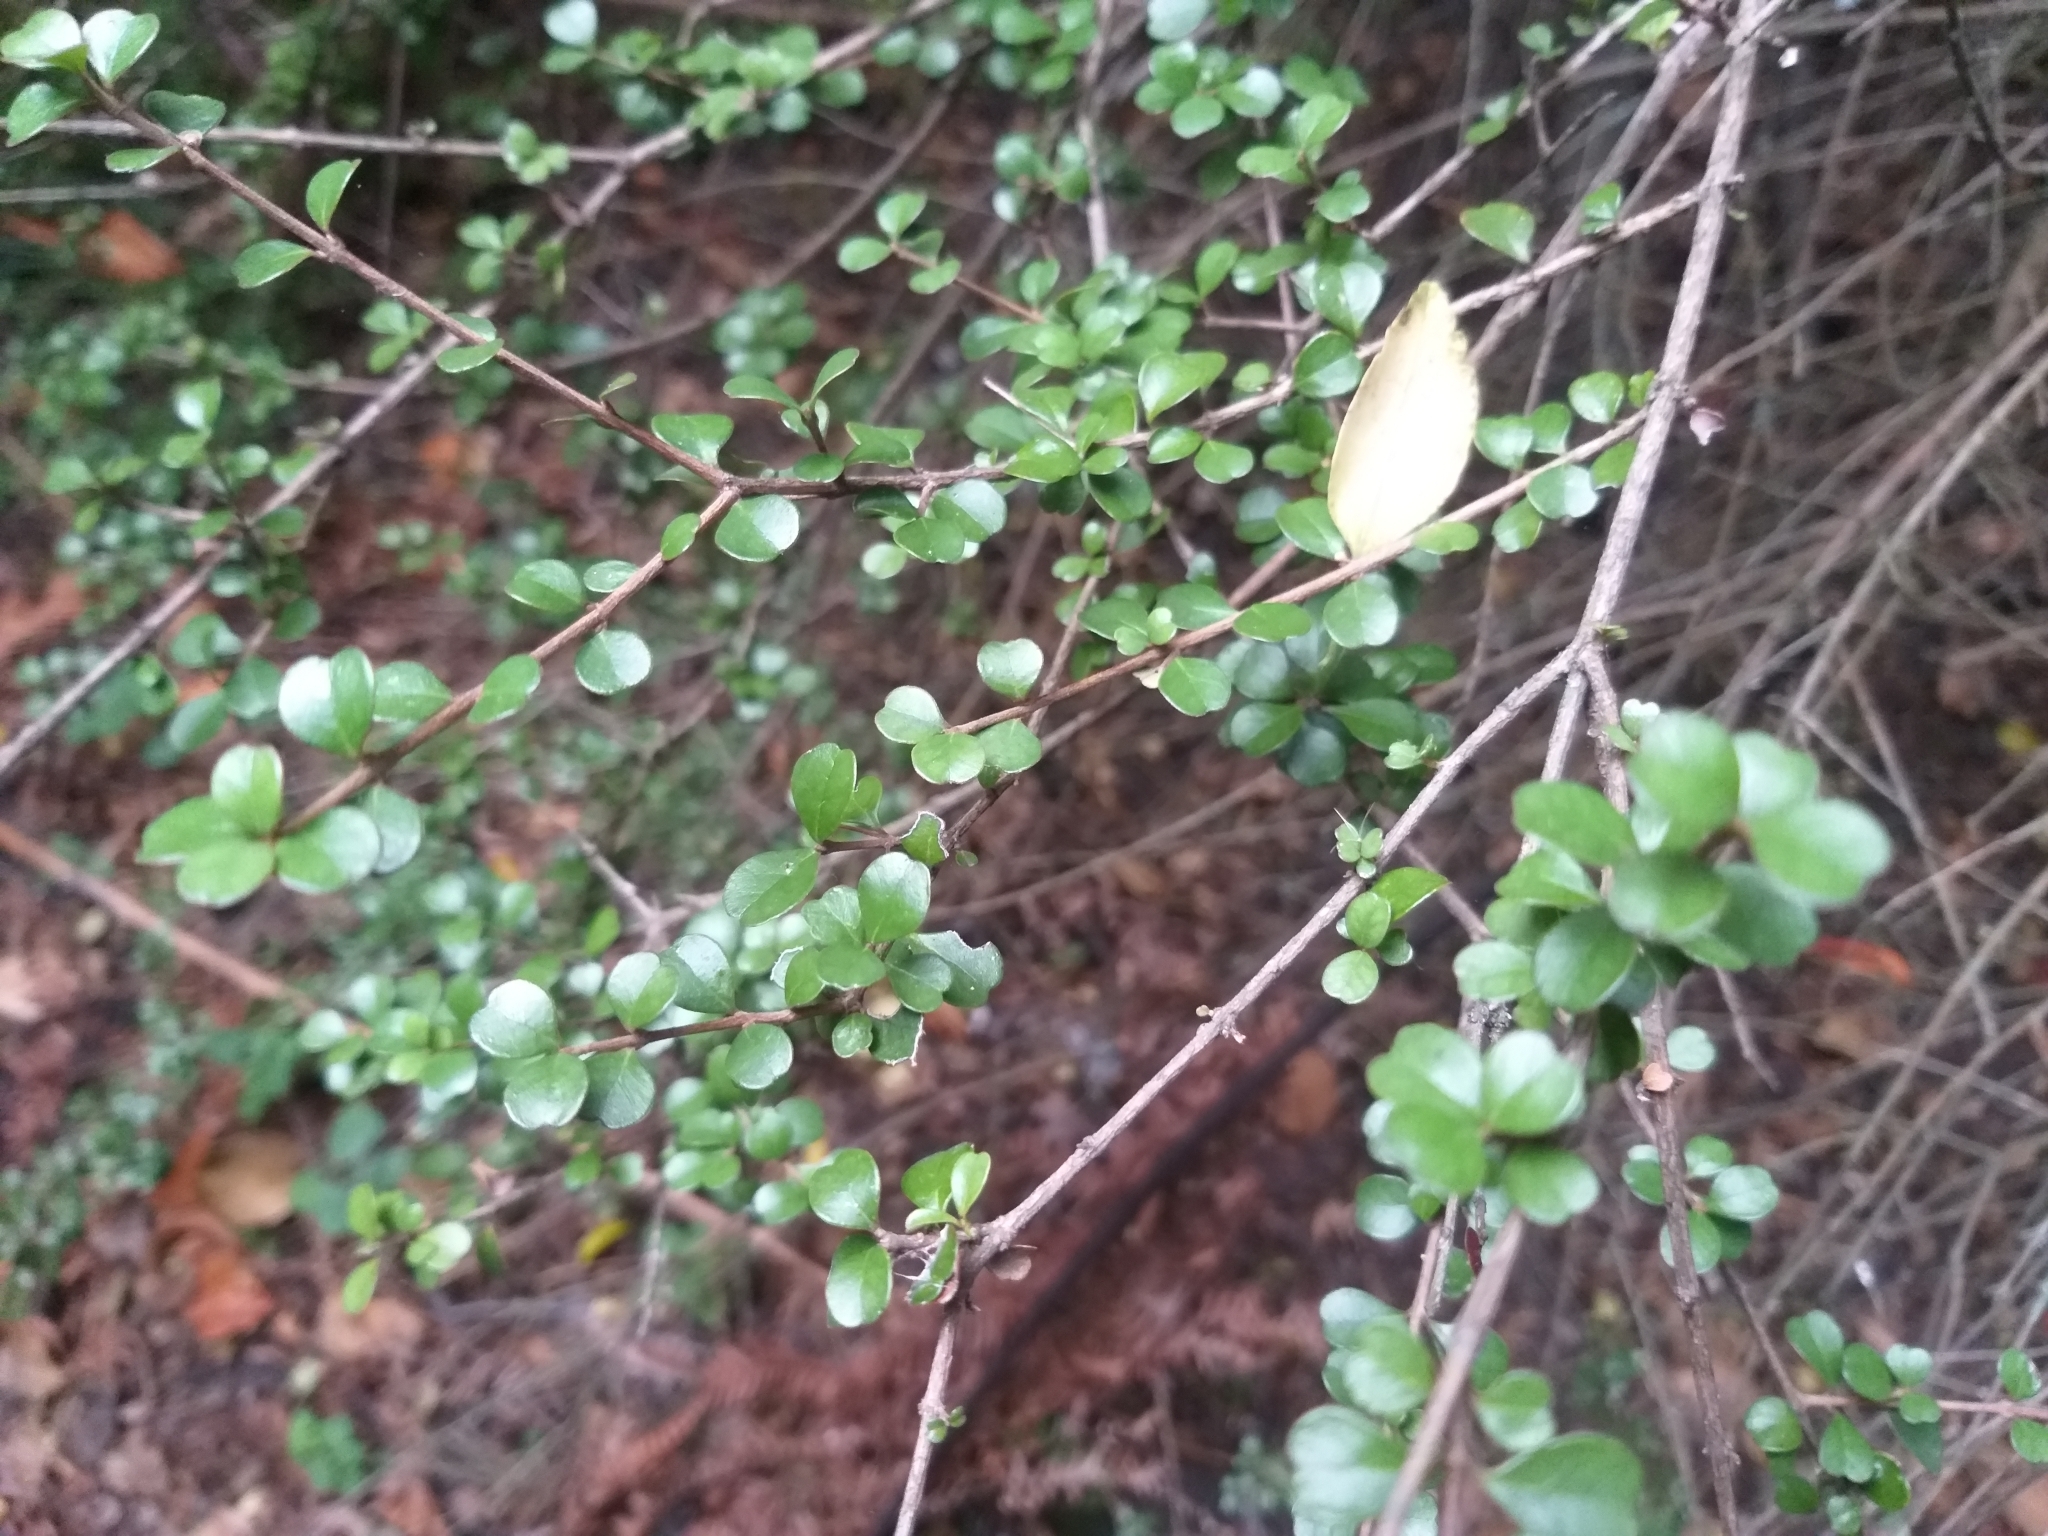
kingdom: Plantae
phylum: Tracheophyta
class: Magnoliopsida
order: Myrtales
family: Myrtaceae
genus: Lophomyrtus
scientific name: Lophomyrtus obcordata
